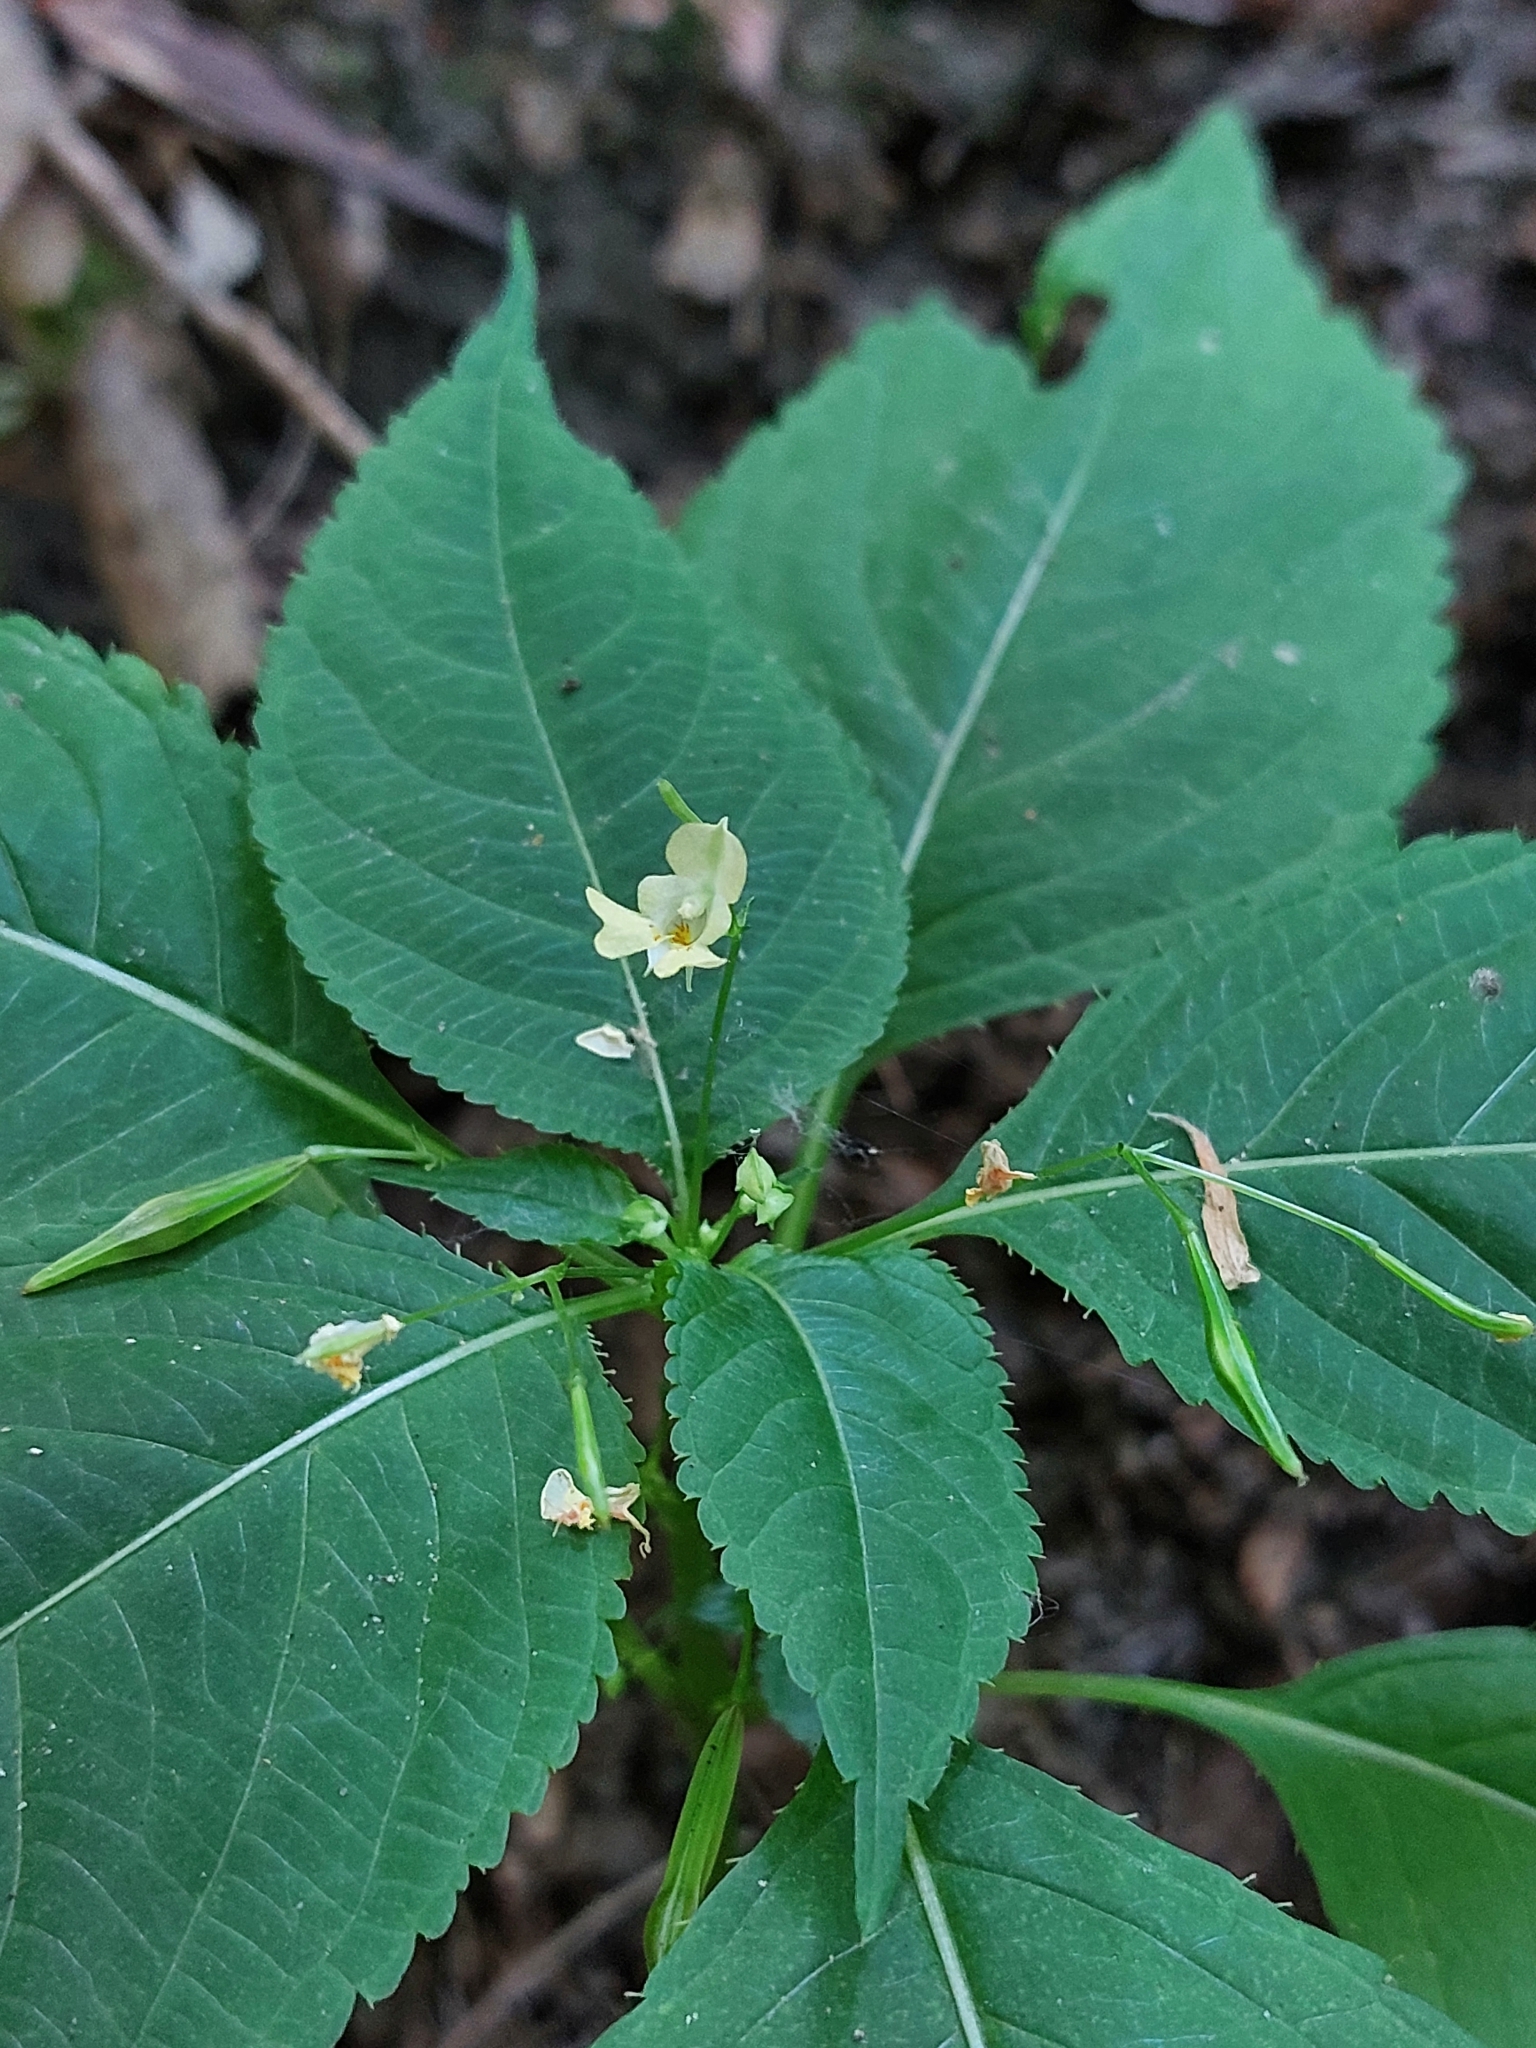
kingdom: Plantae
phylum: Tracheophyta
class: Magnoliopsida
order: Ericales
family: Balsaminaceae
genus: Impatiens
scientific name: Impatiens parviflora
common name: Small balsam
